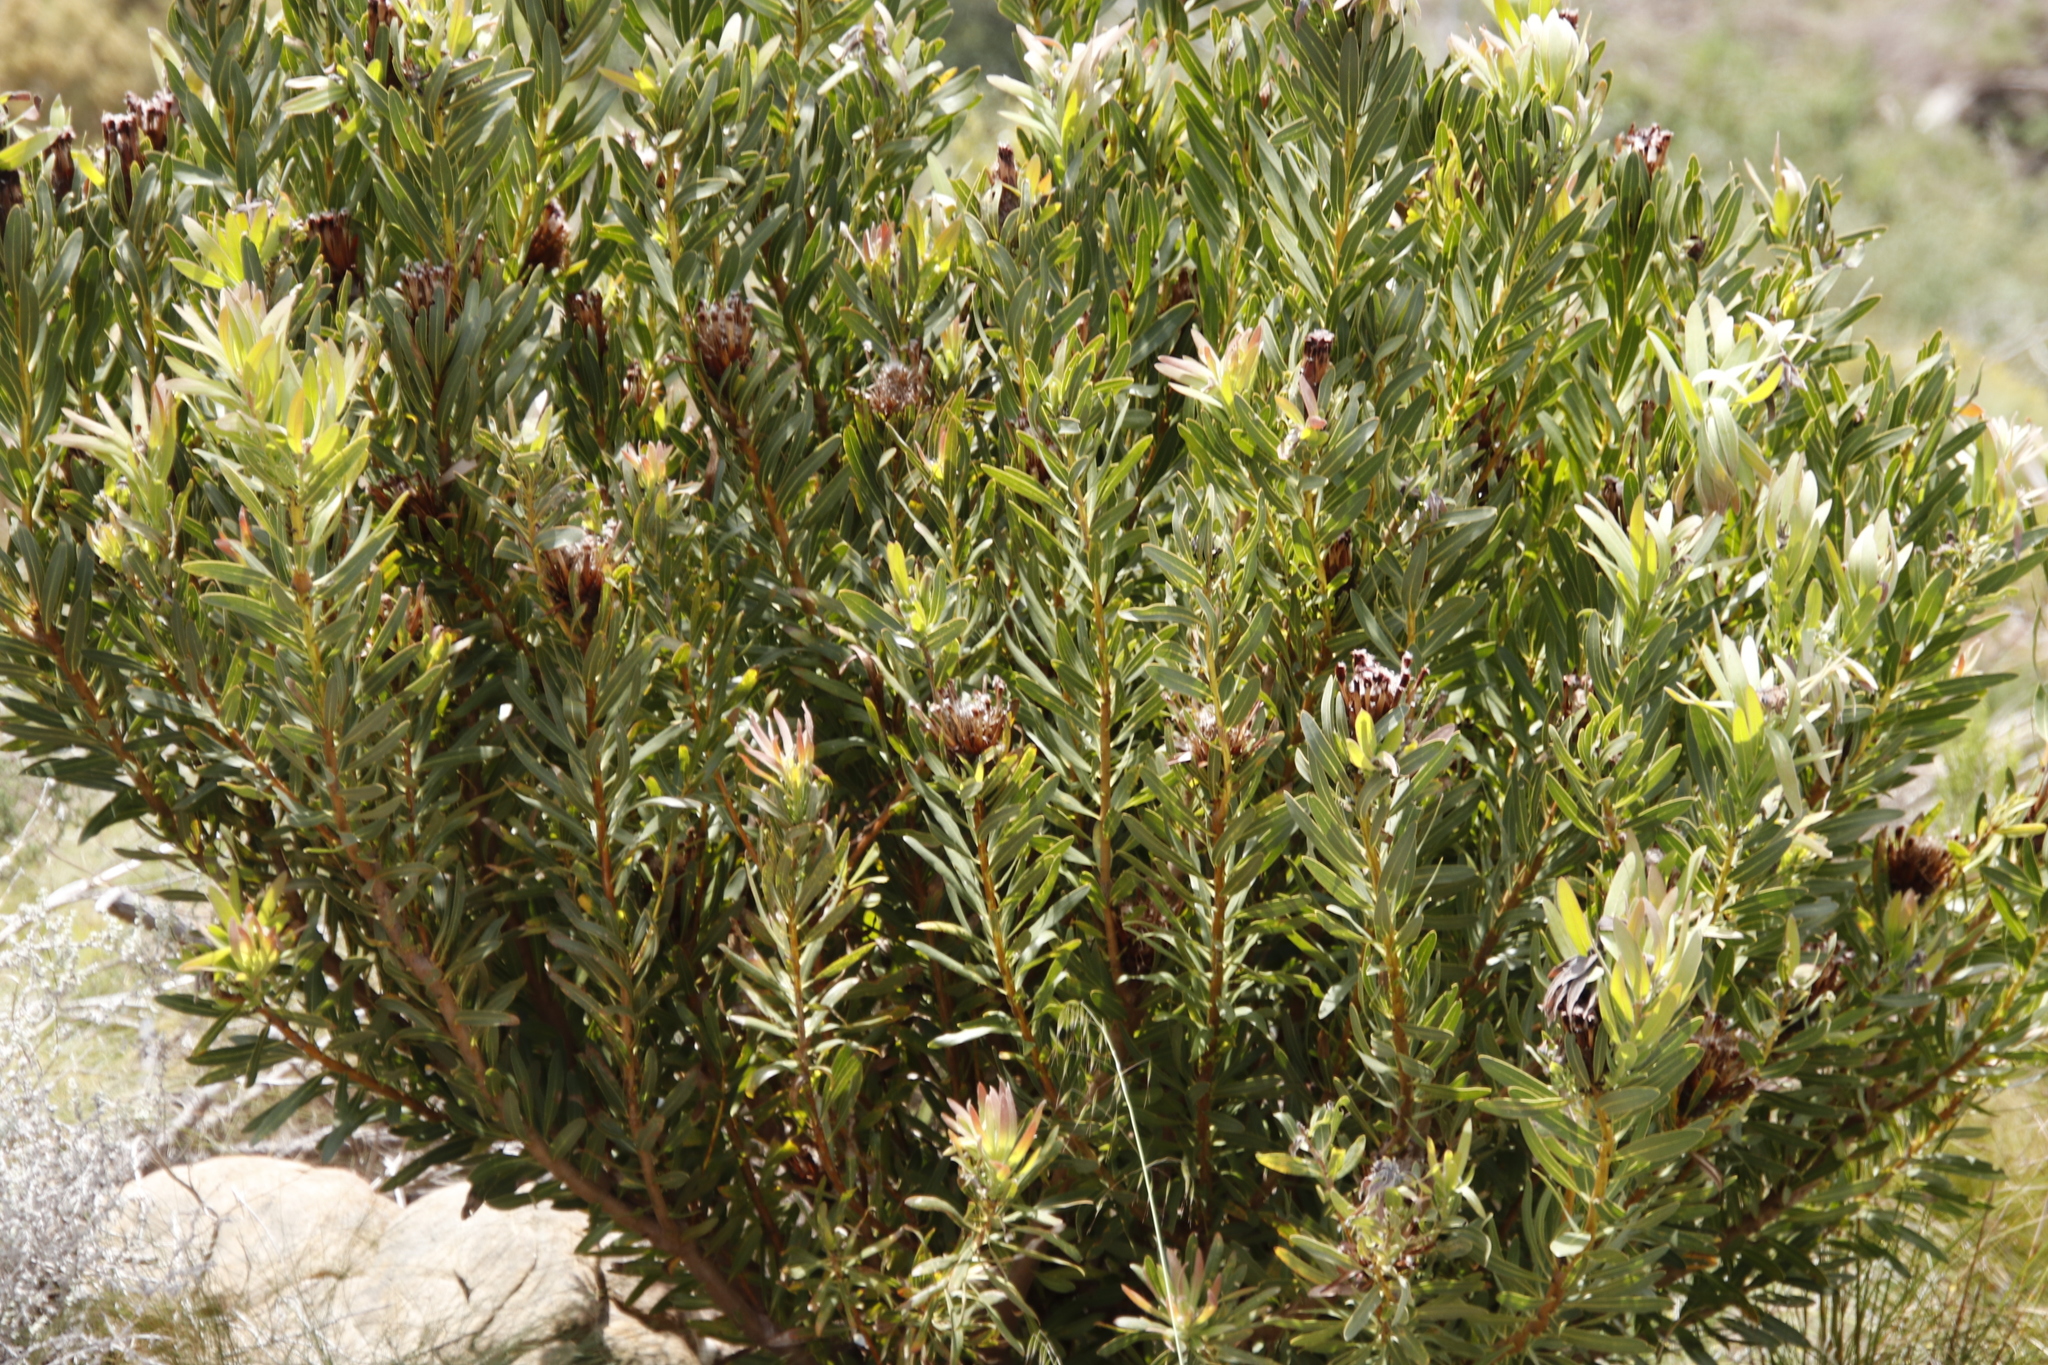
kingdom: Plantae
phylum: Tracheophyta
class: Magnoliopsida
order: Proteales
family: Proteaceae
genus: Protea
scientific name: Protea lepidocarpodendron
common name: Black-bearded protea
